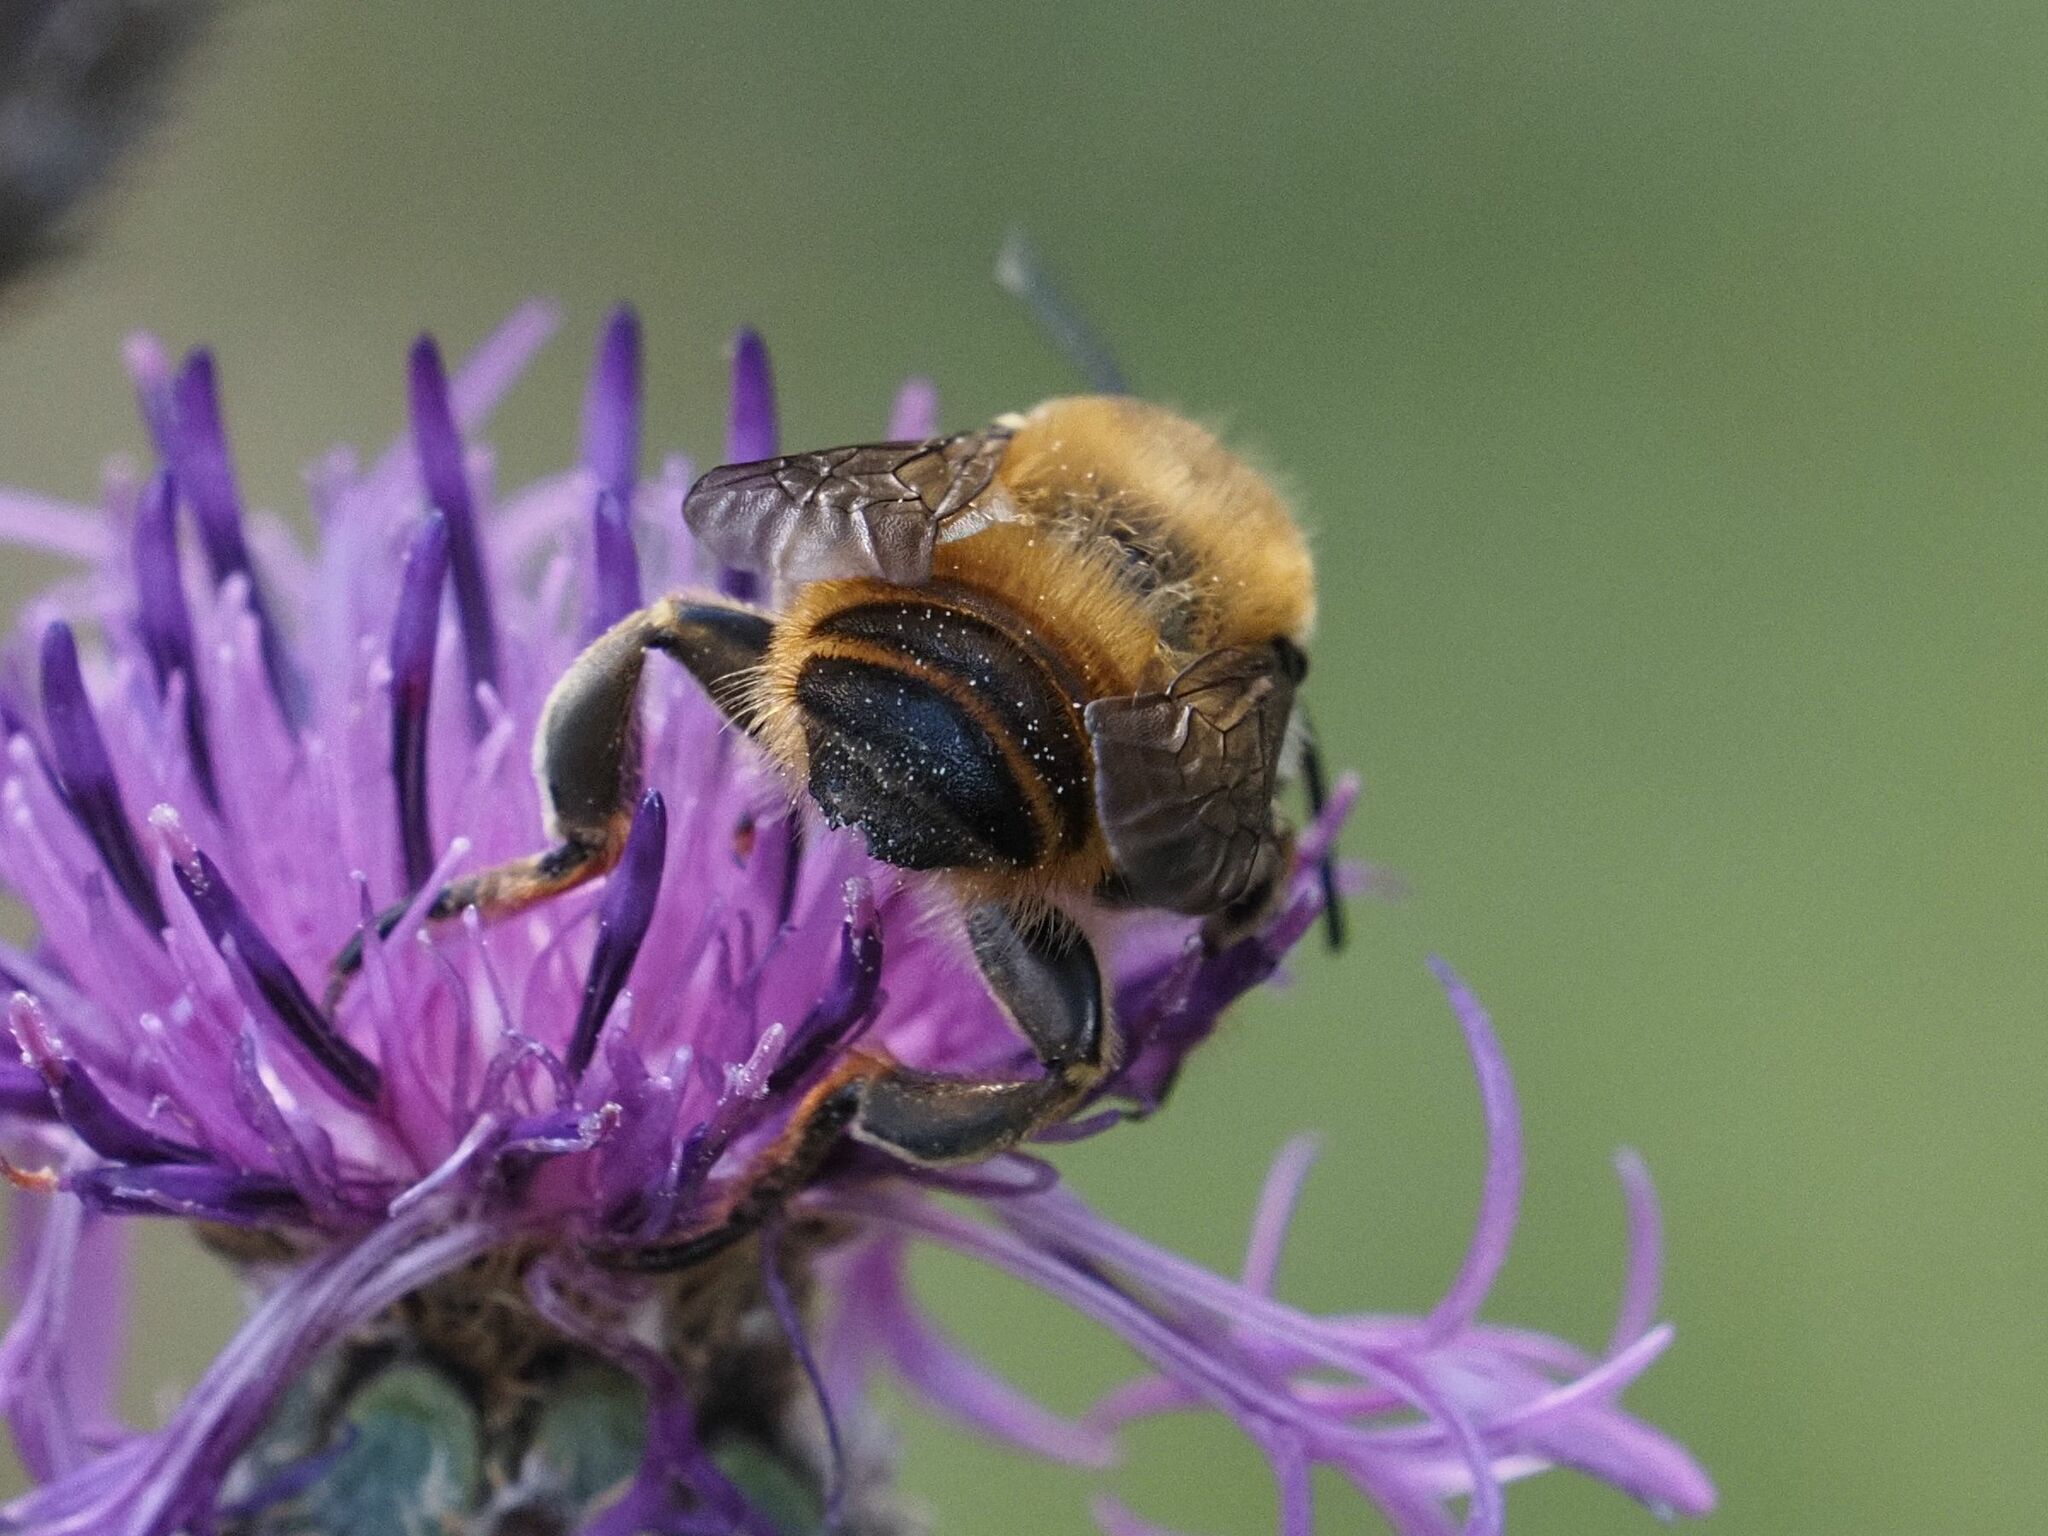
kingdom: Animalia
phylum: Arthropoda
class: Insecta
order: Hymenoptera
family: Megachilidae
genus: Megachile
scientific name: Megachile lagopoda
